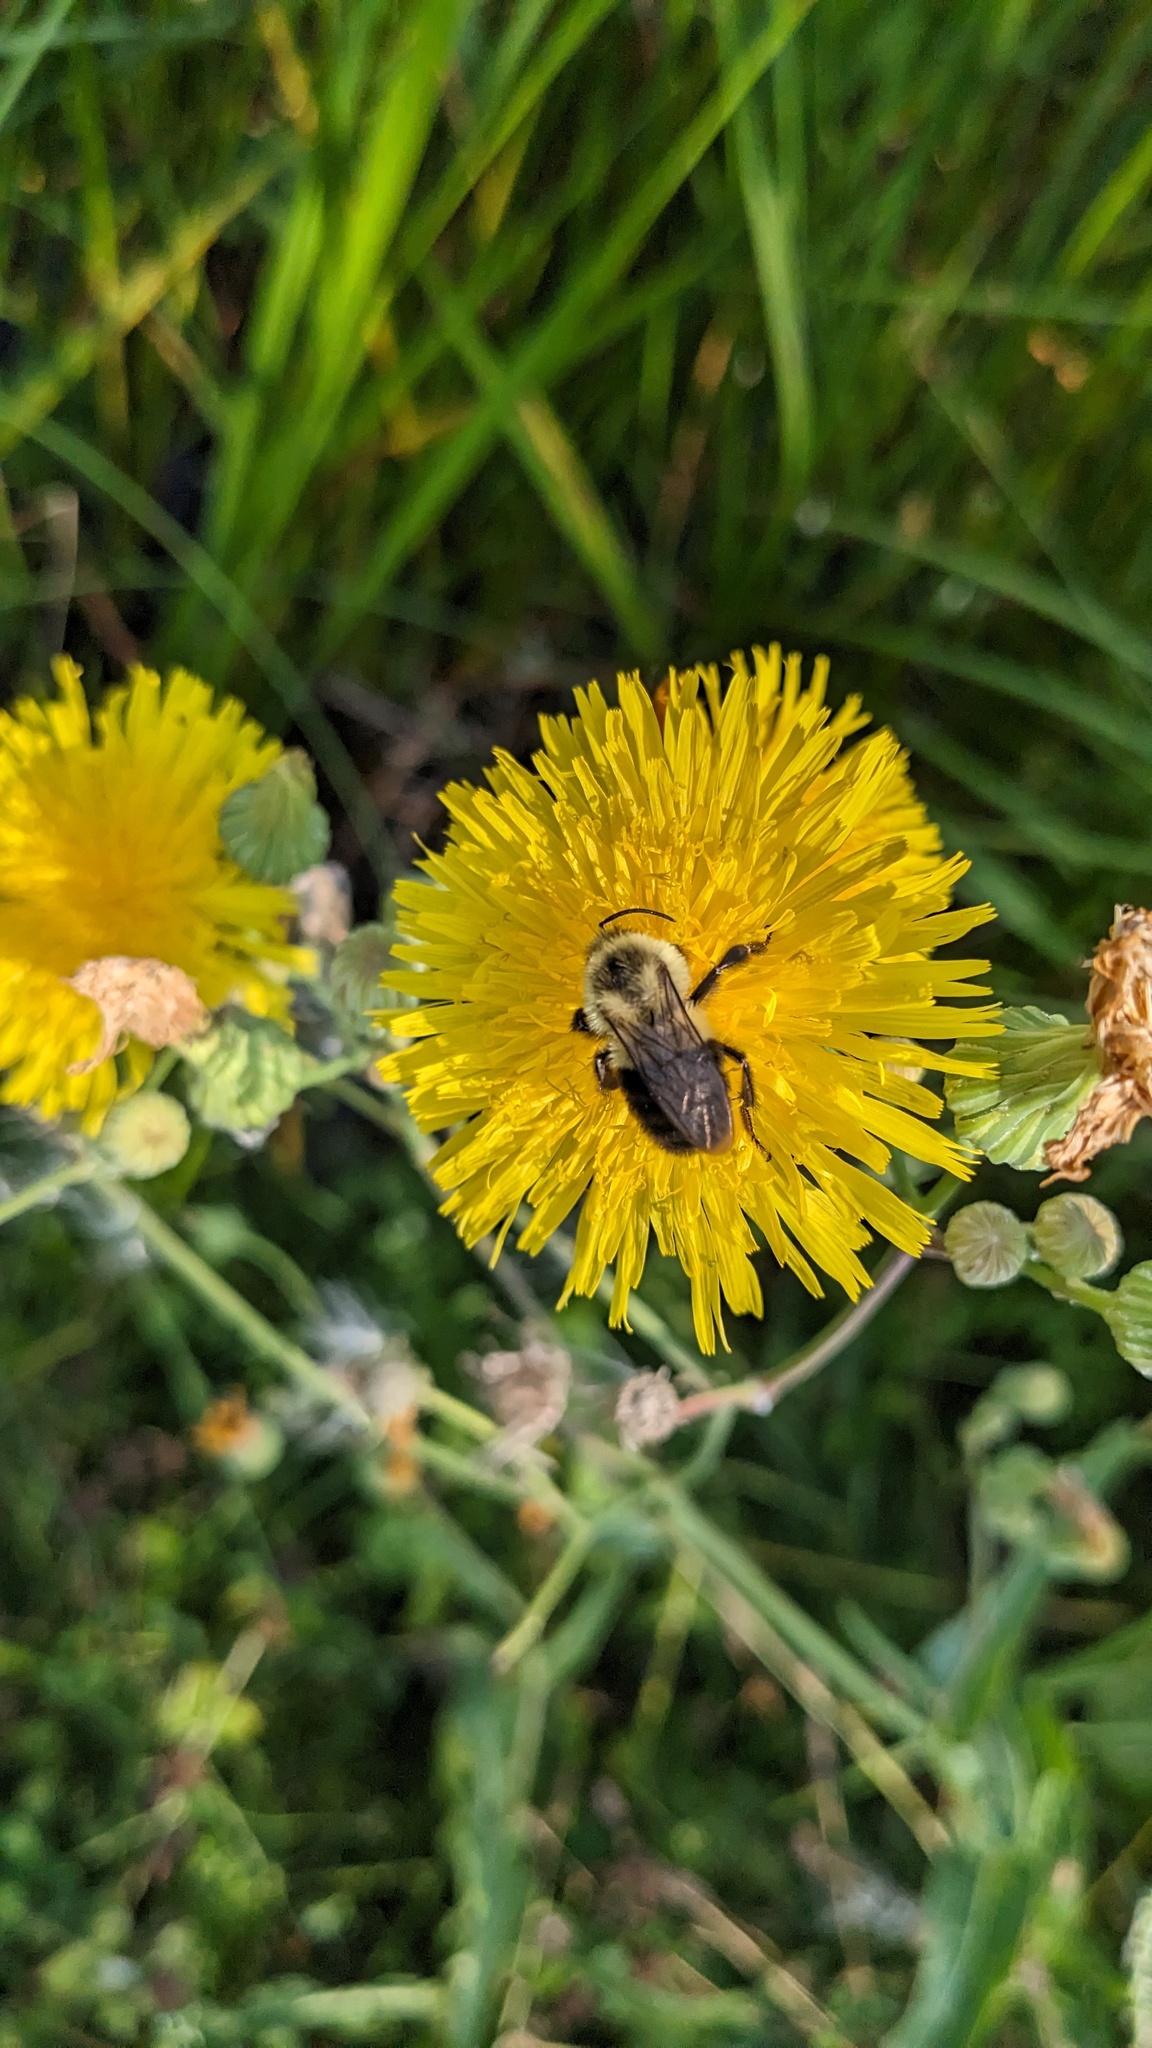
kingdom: Animalia
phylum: Arthropoda
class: Insecta
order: Hymenoptera
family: Apidae
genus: Bombus
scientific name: Bombus impatiens
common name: Common eastern bumble bee
